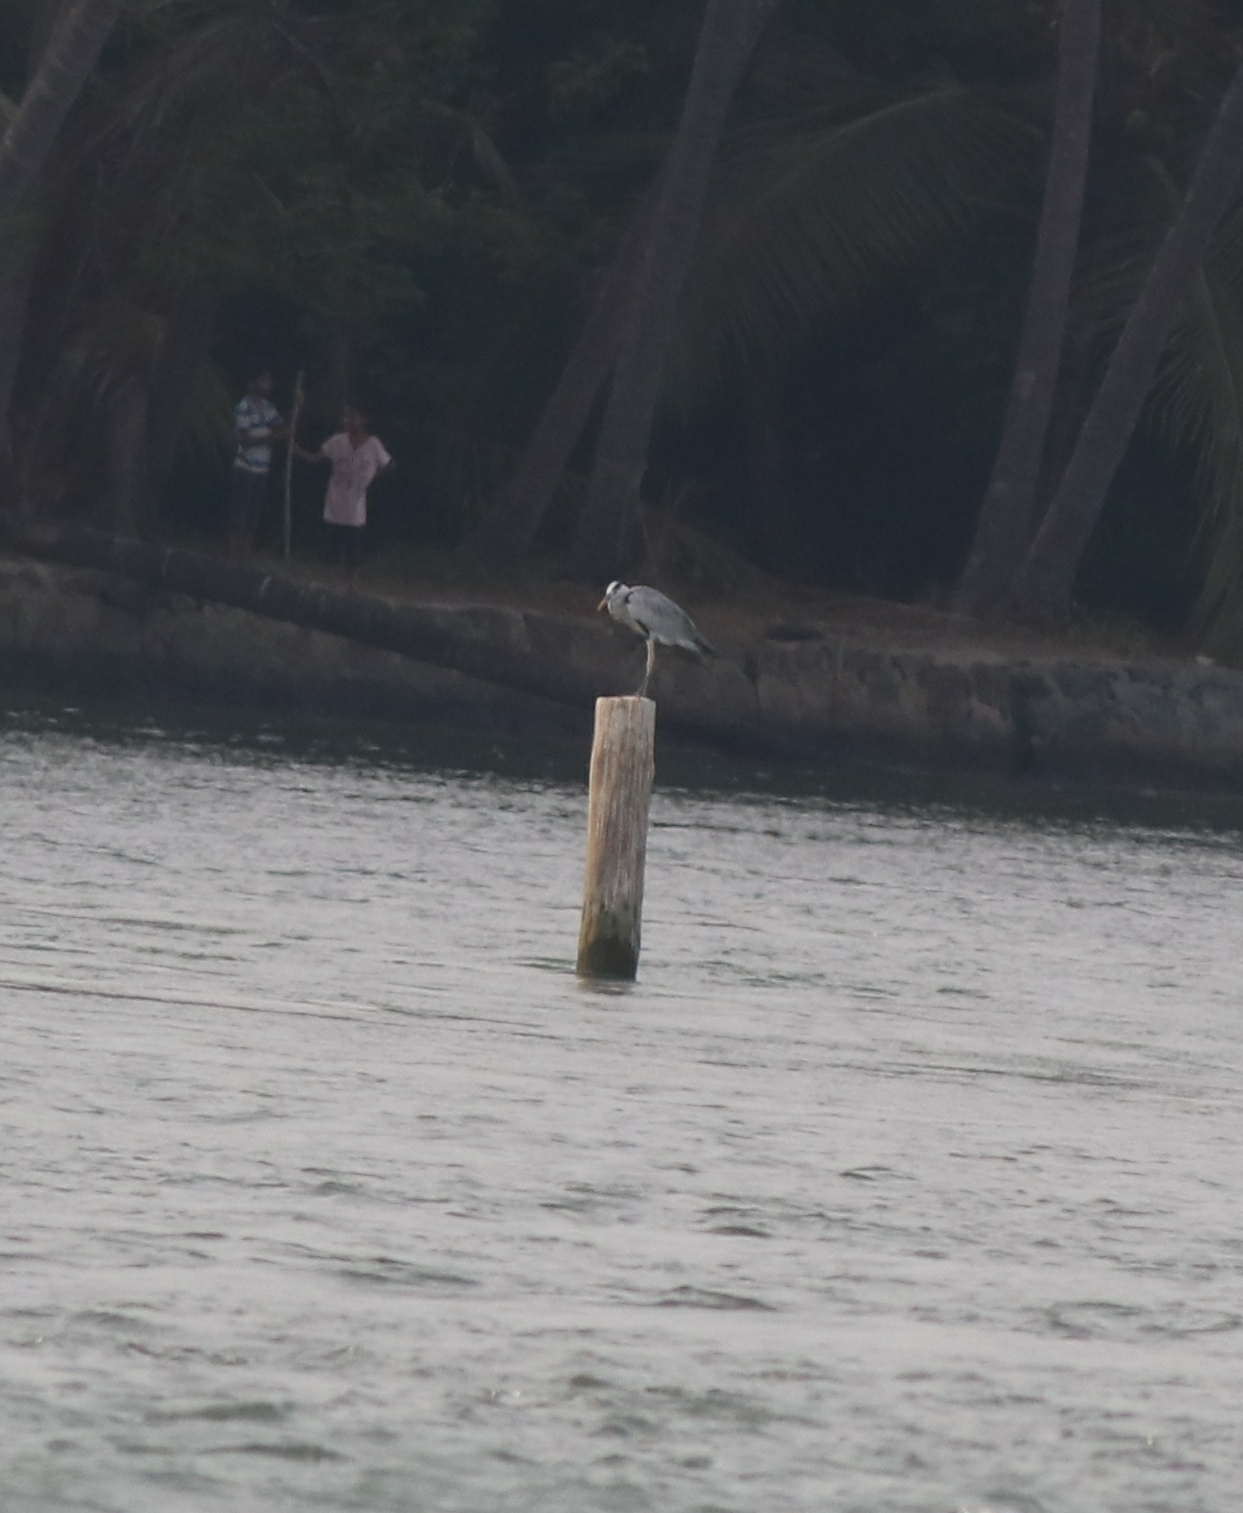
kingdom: Animalia
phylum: Chordata
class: Aves
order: Pelecaniformes
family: Ardeidae
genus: Ardea
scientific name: Ardea cinerea
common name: Grey heron
